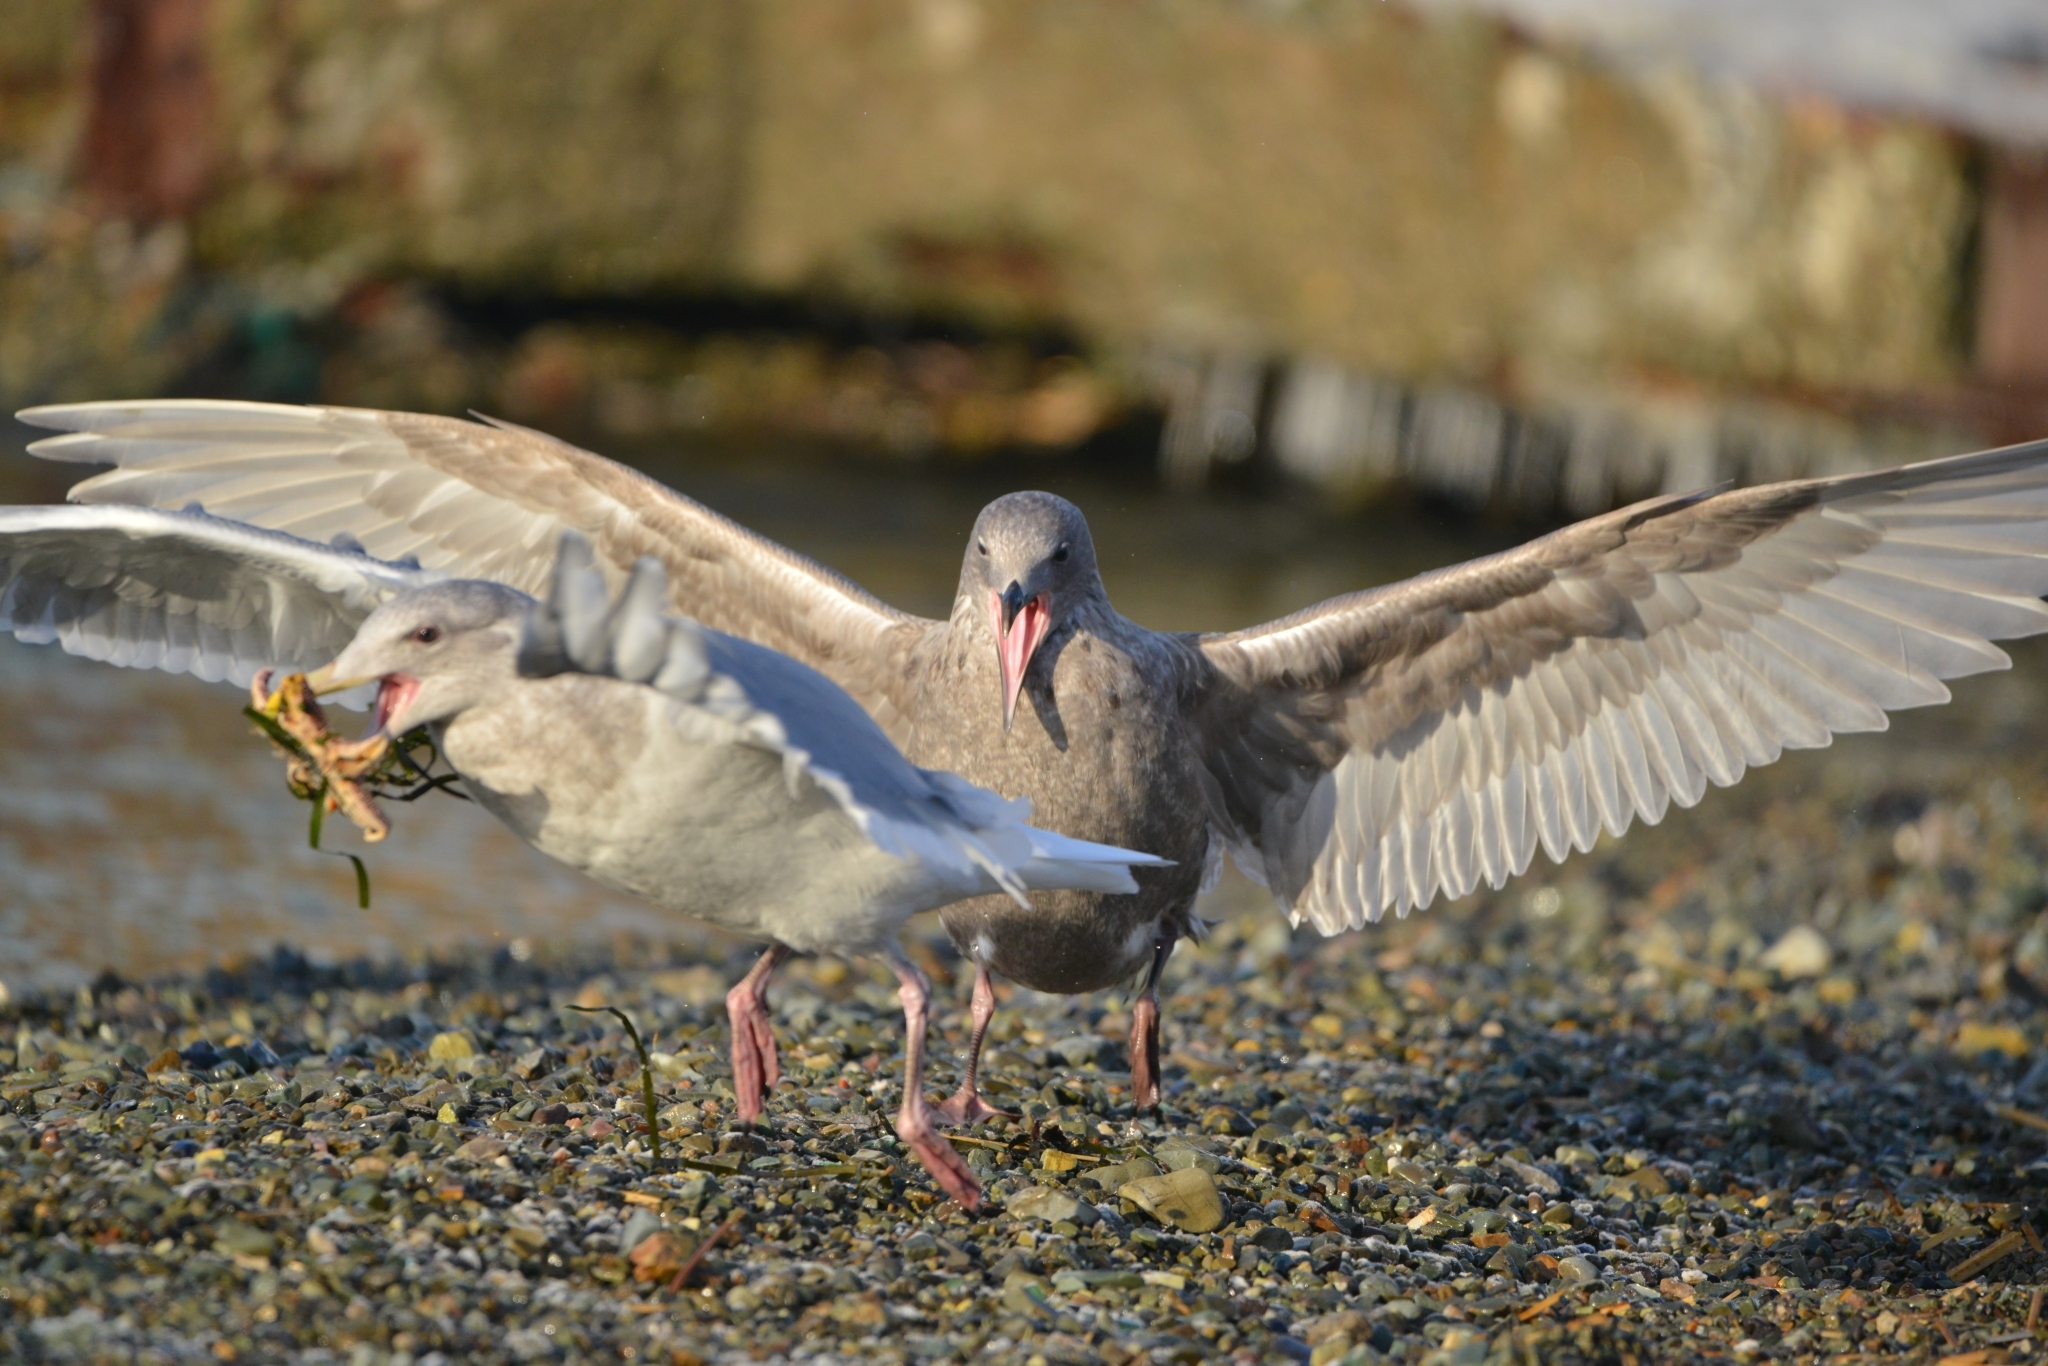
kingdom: Animalia
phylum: Chordata
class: Aves
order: Charadriiformes
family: Laridae
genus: Larus
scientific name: Larus glaucescens
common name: Glaucous-winged gull
